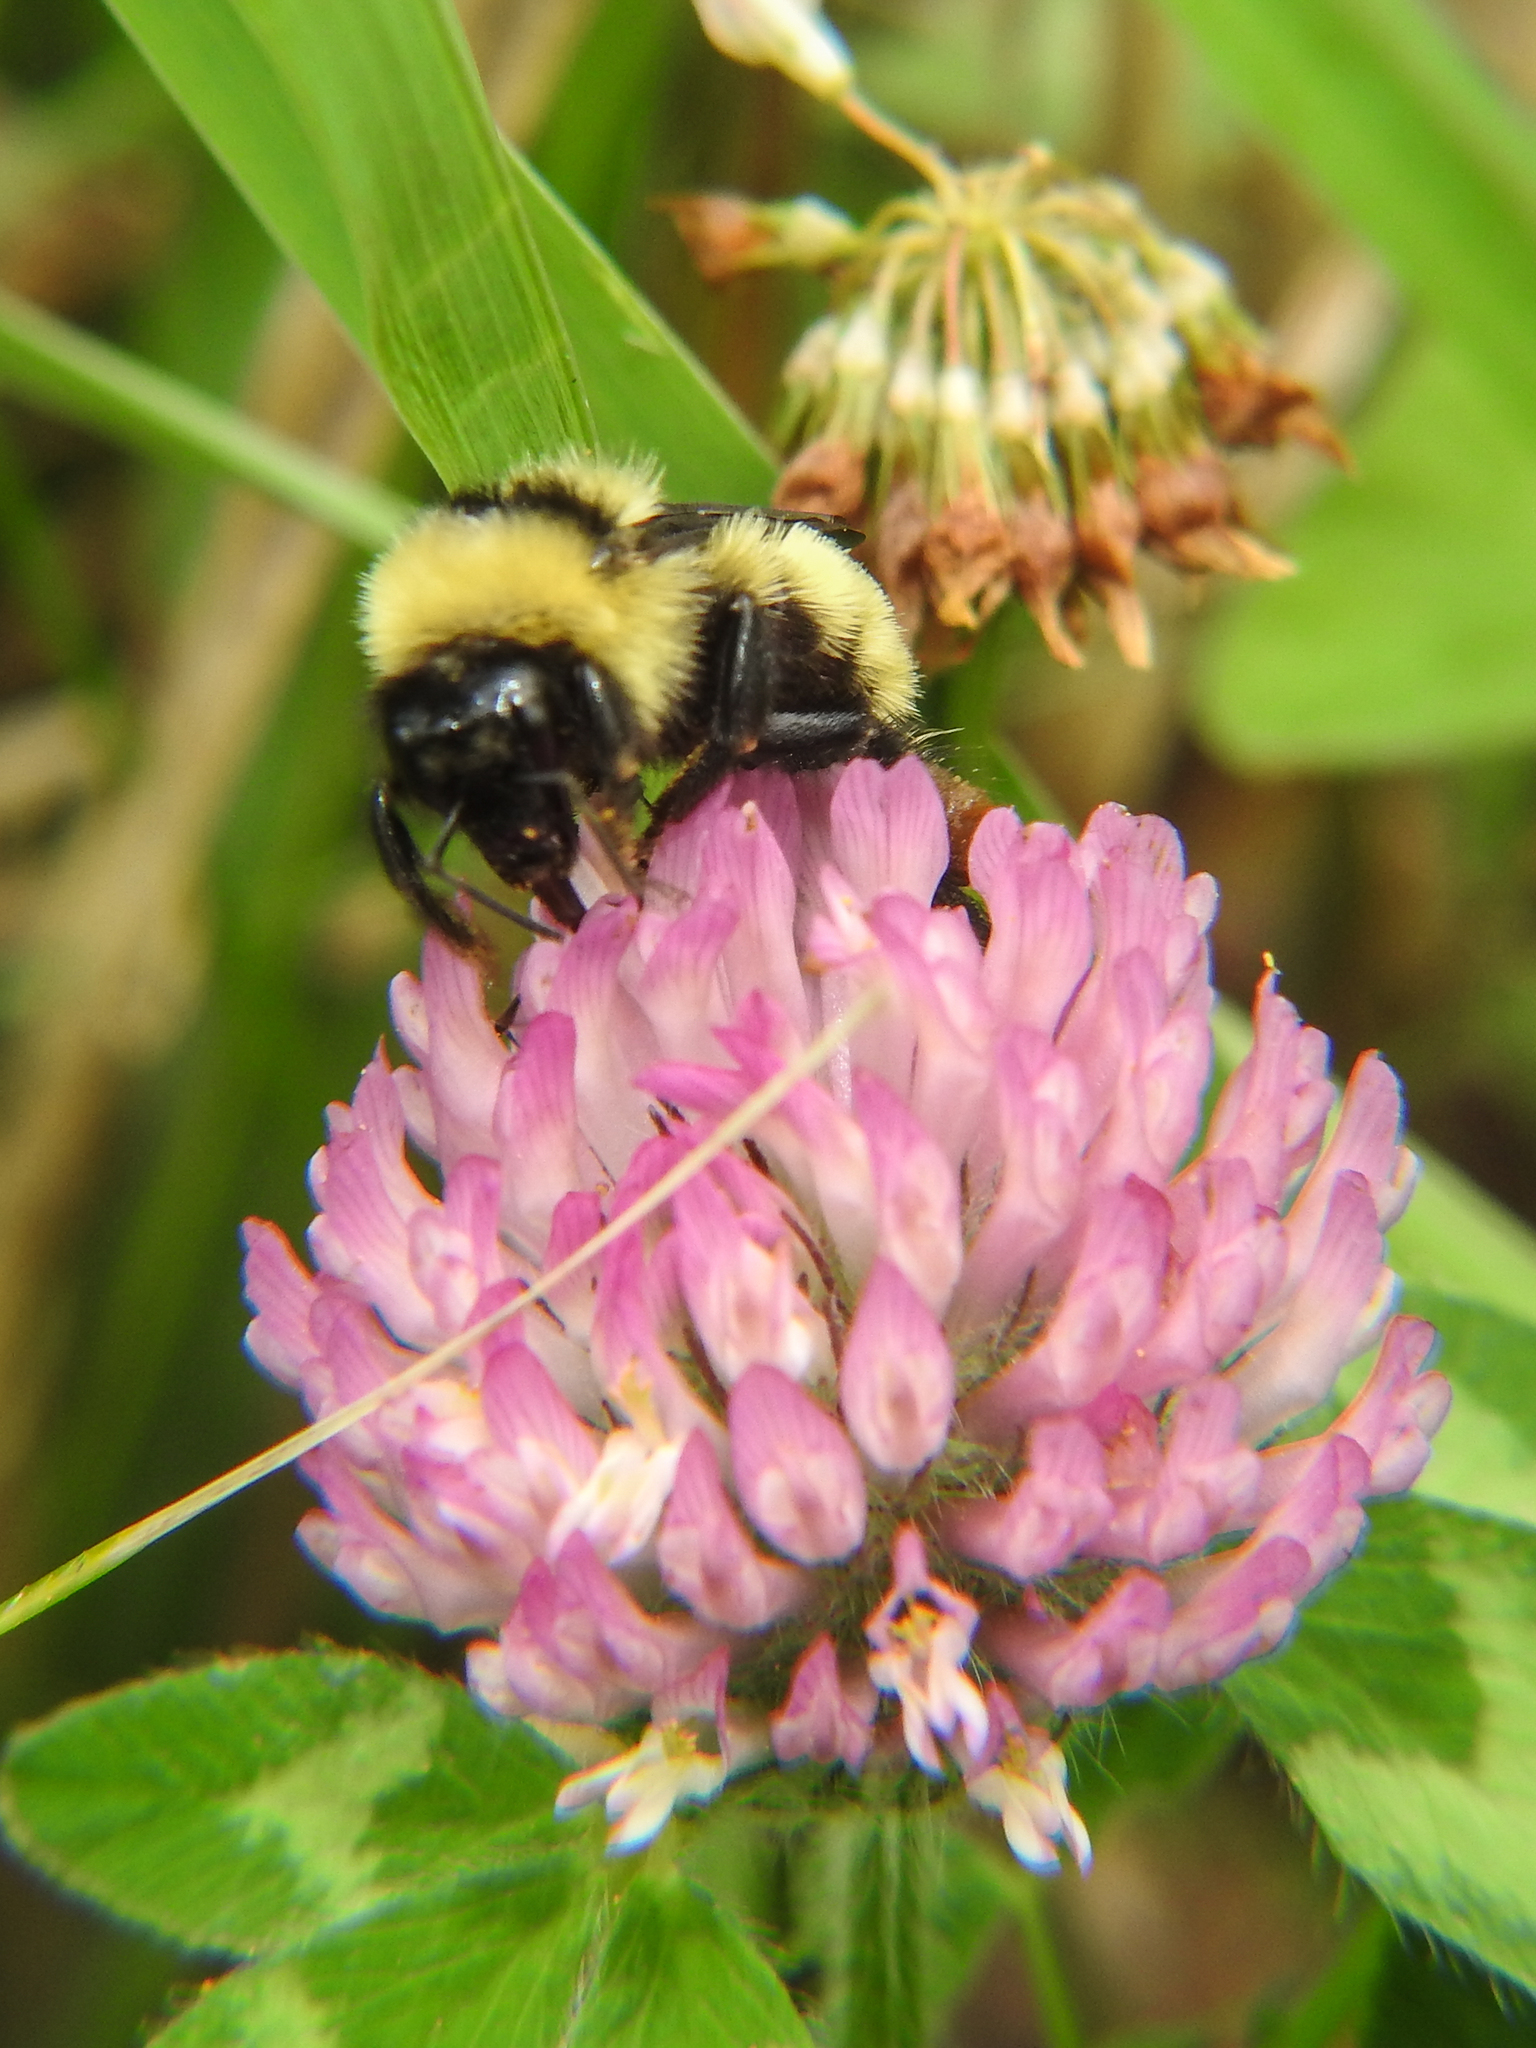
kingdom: Animalia
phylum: Arthropoda
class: Insecta
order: Hymenoptera
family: Apidae
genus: Bombus
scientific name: Bombus fervidus
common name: Yellow bumble bee
